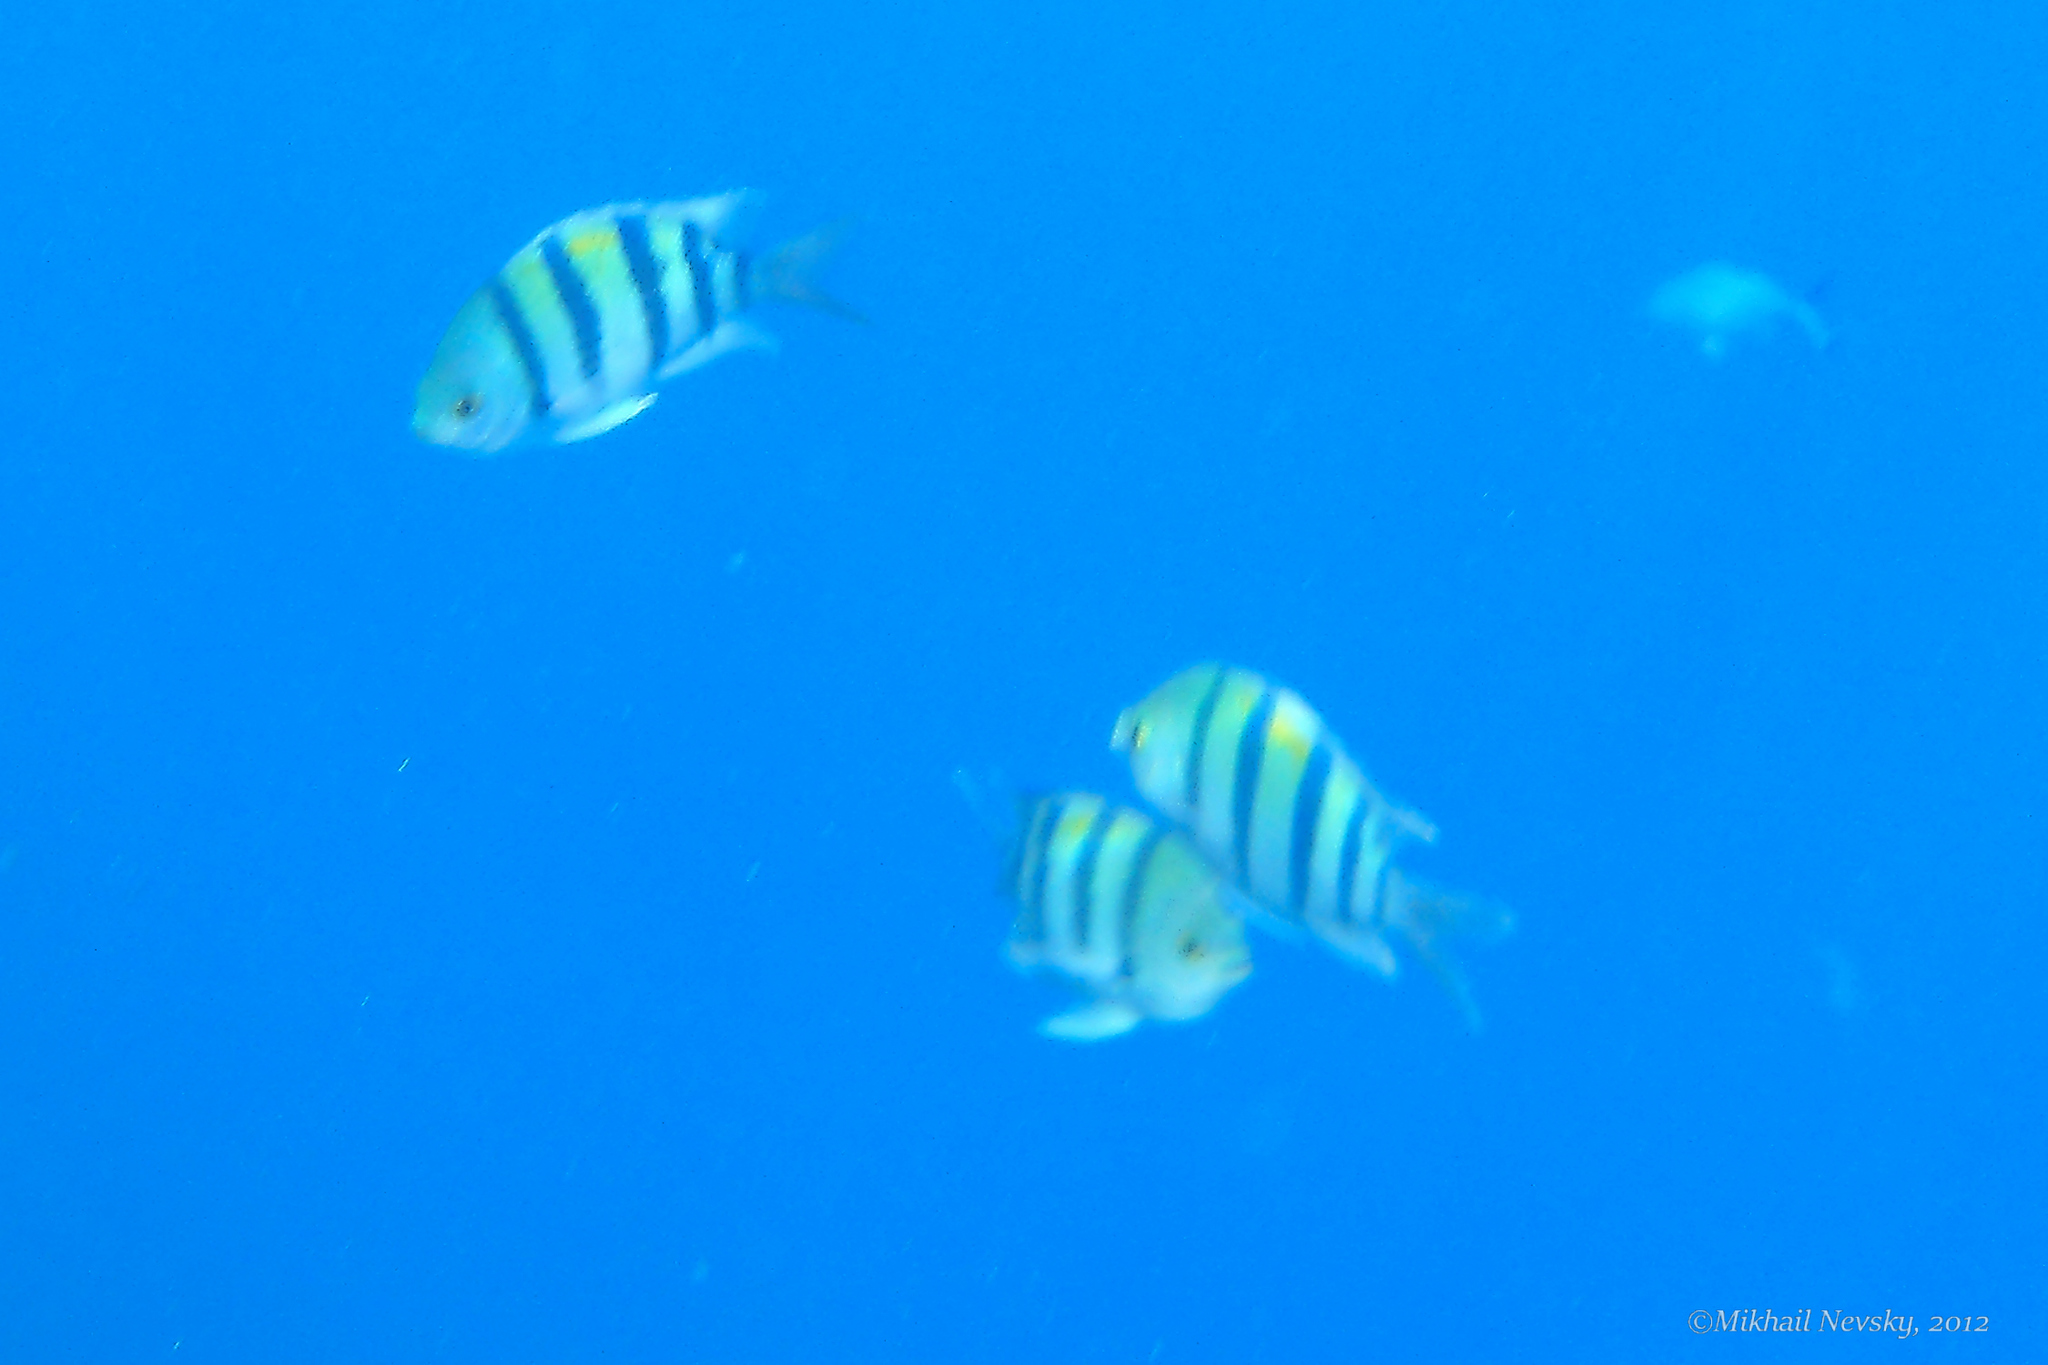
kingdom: Animalia
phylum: Chordata
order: Perciformes
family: Pomacentridae
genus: Abudefduf
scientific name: Abudefduf vaigiensis
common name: Indo-pacific sergeant
